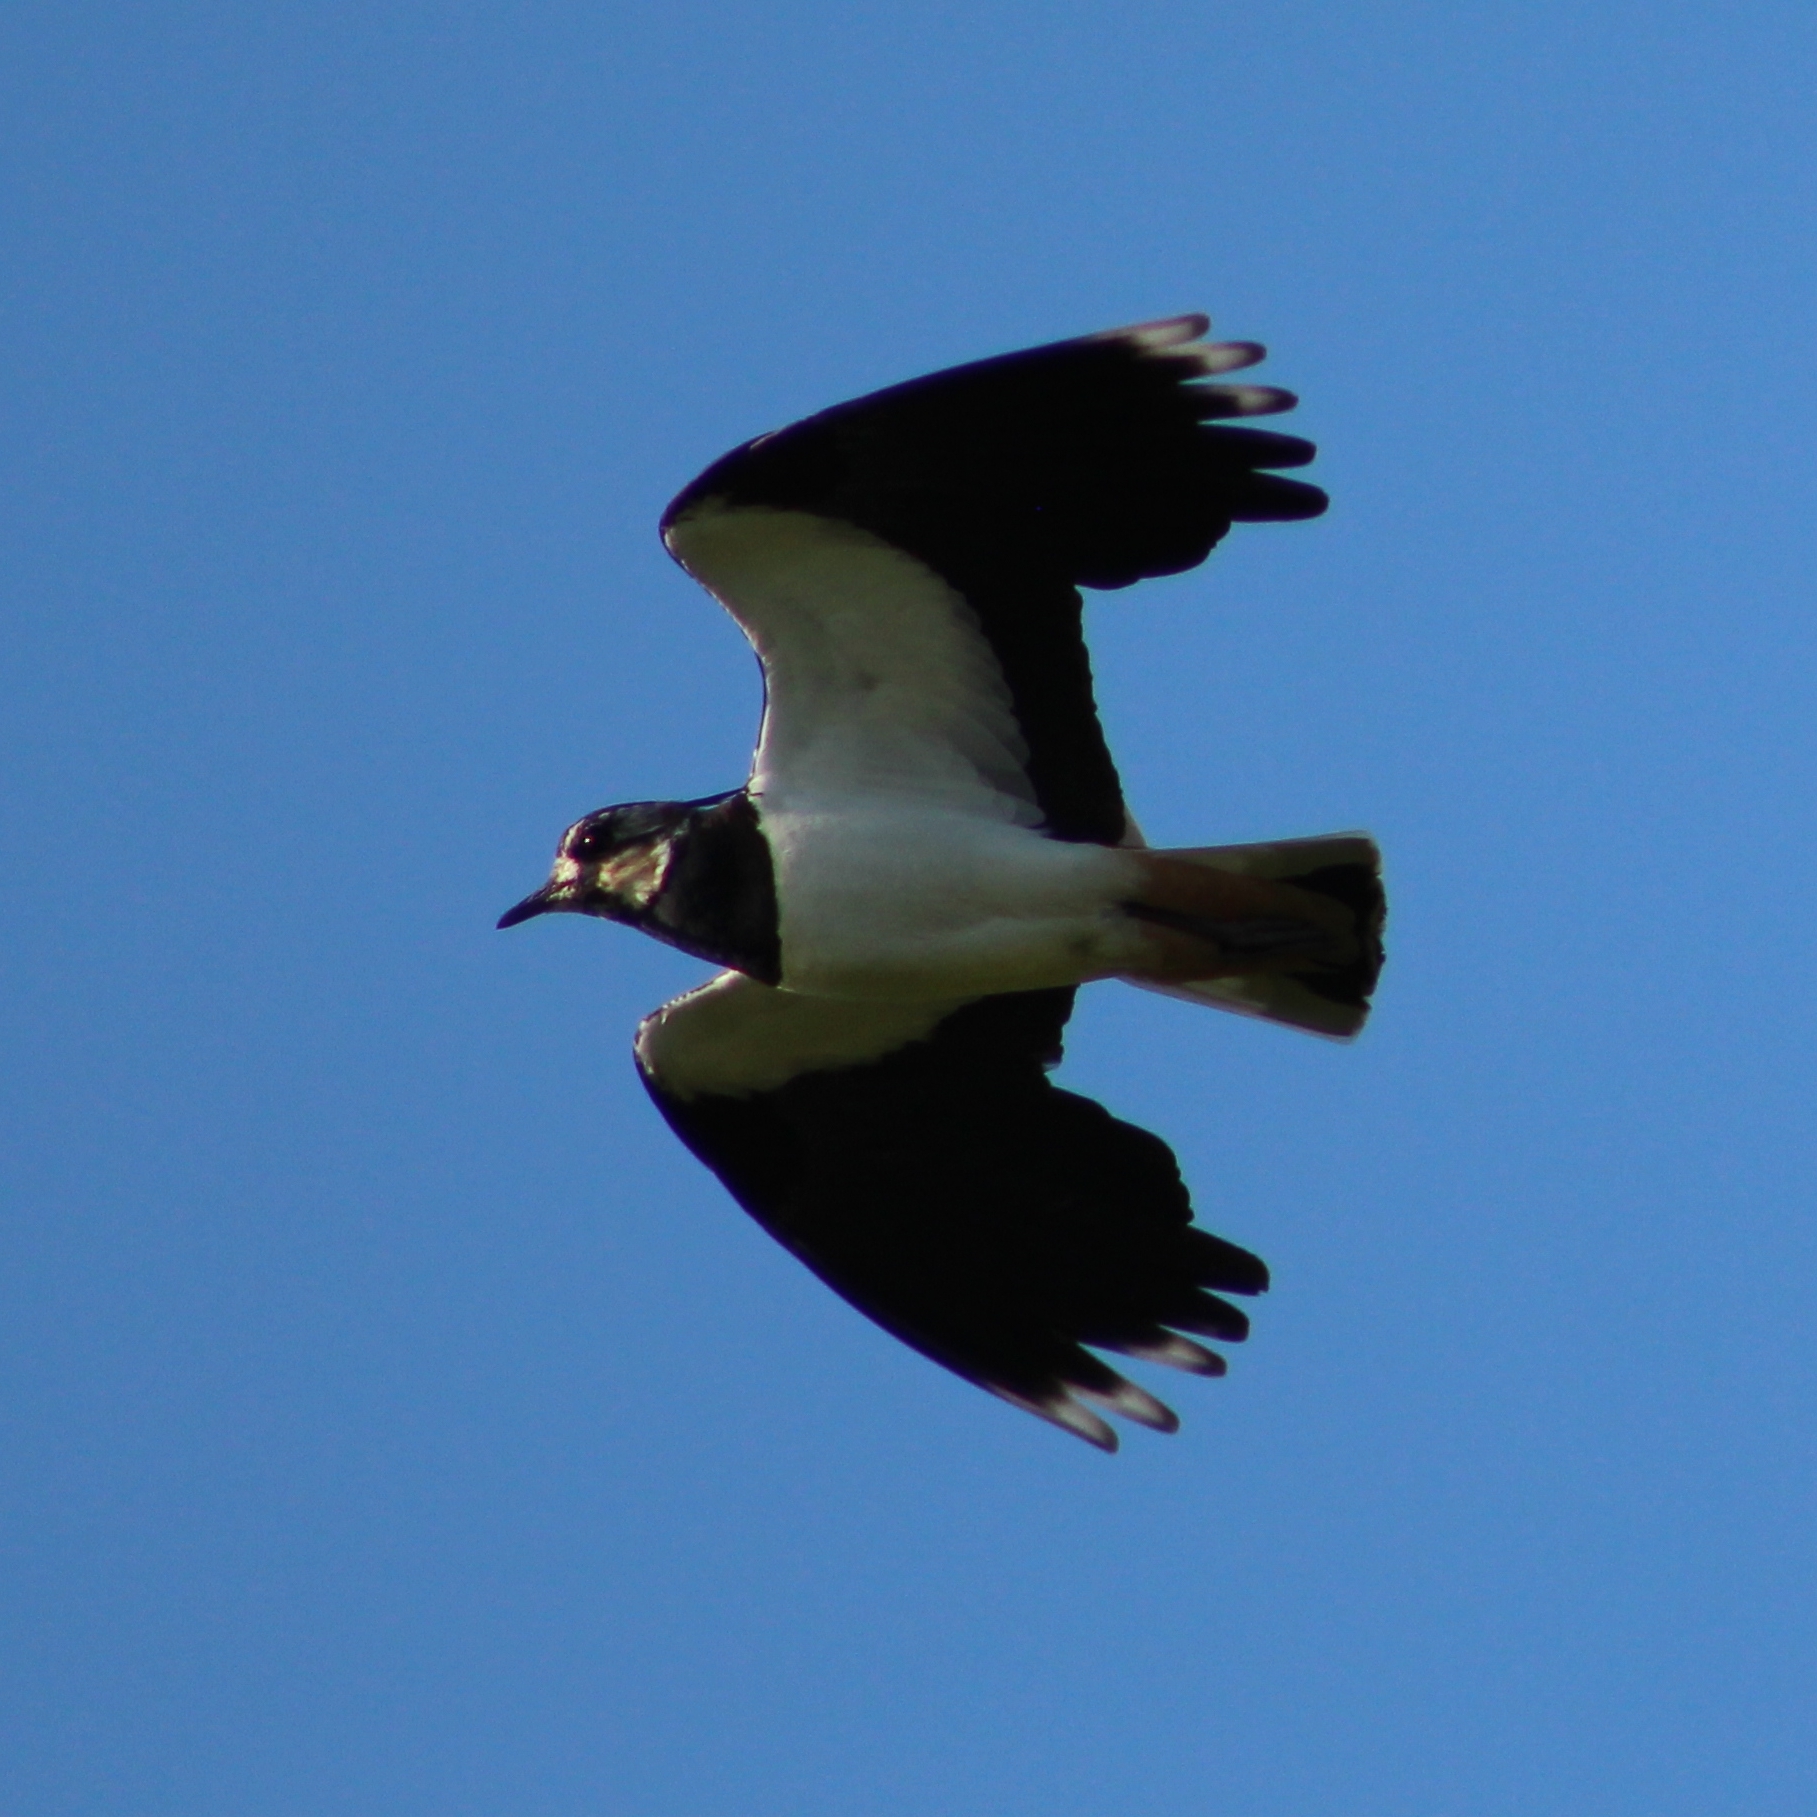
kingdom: Animalia
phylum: Chordata
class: Aves
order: Charadriiformes
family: Charadriidae
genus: Vanellus
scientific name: Vanellus vanellus
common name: Northern lapwing
